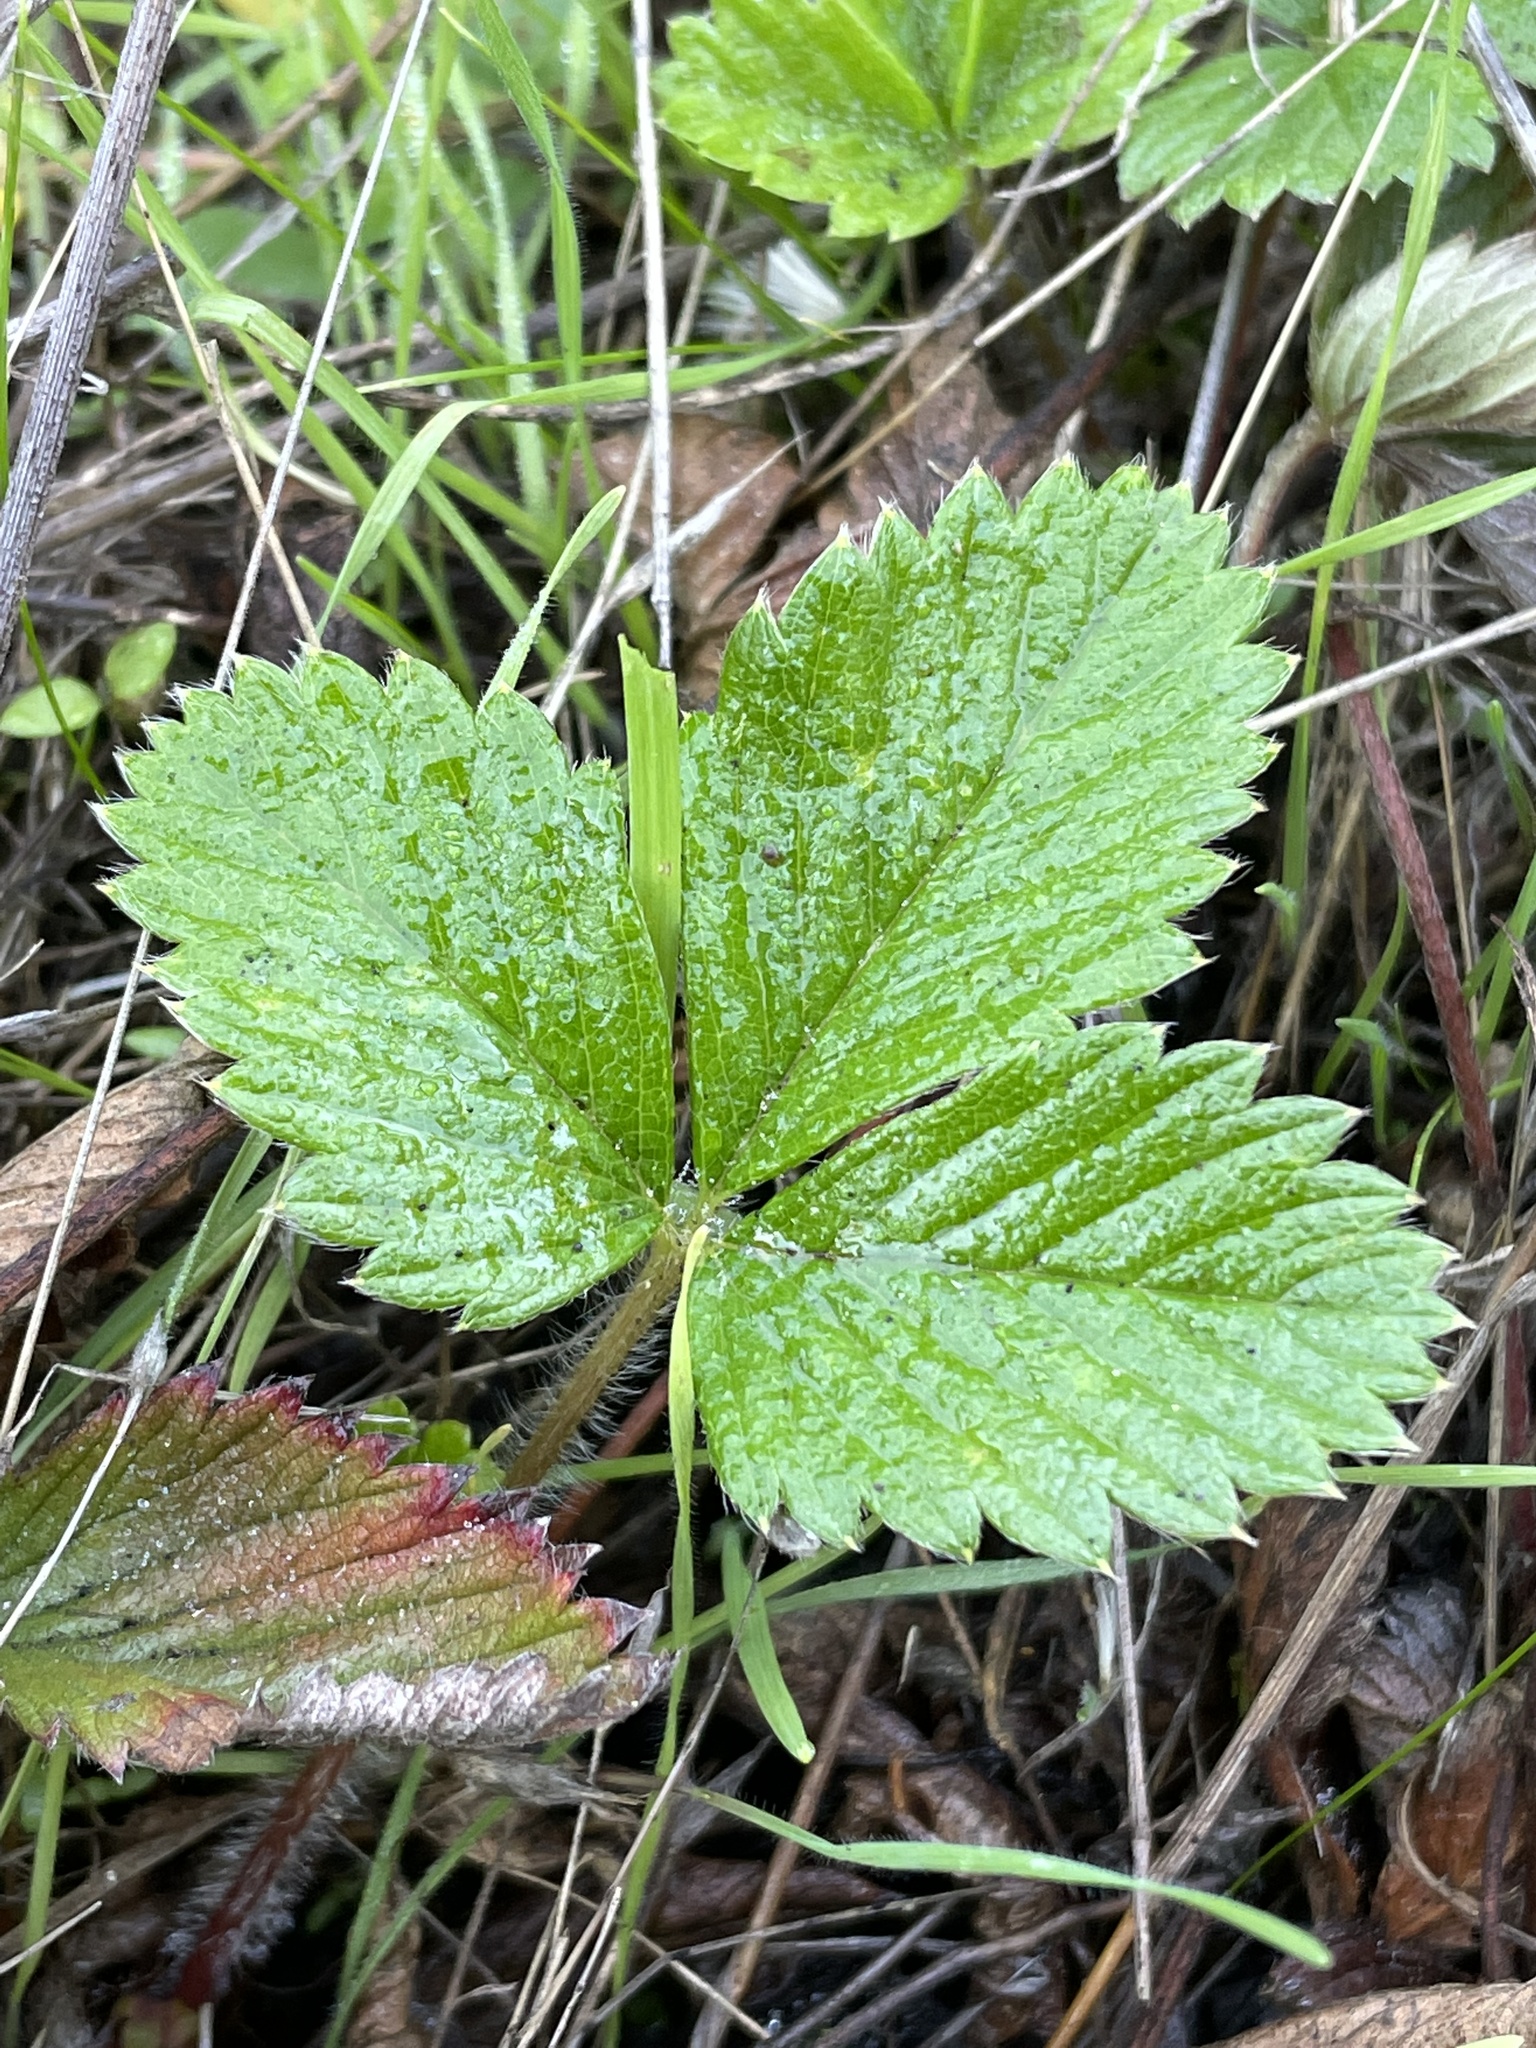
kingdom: Plantae
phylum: Tracheophyta
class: Magnoliopsida
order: Rosales
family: Rosaceae
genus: Fragaria
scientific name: Fragaria vesca
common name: Wild strawberry
